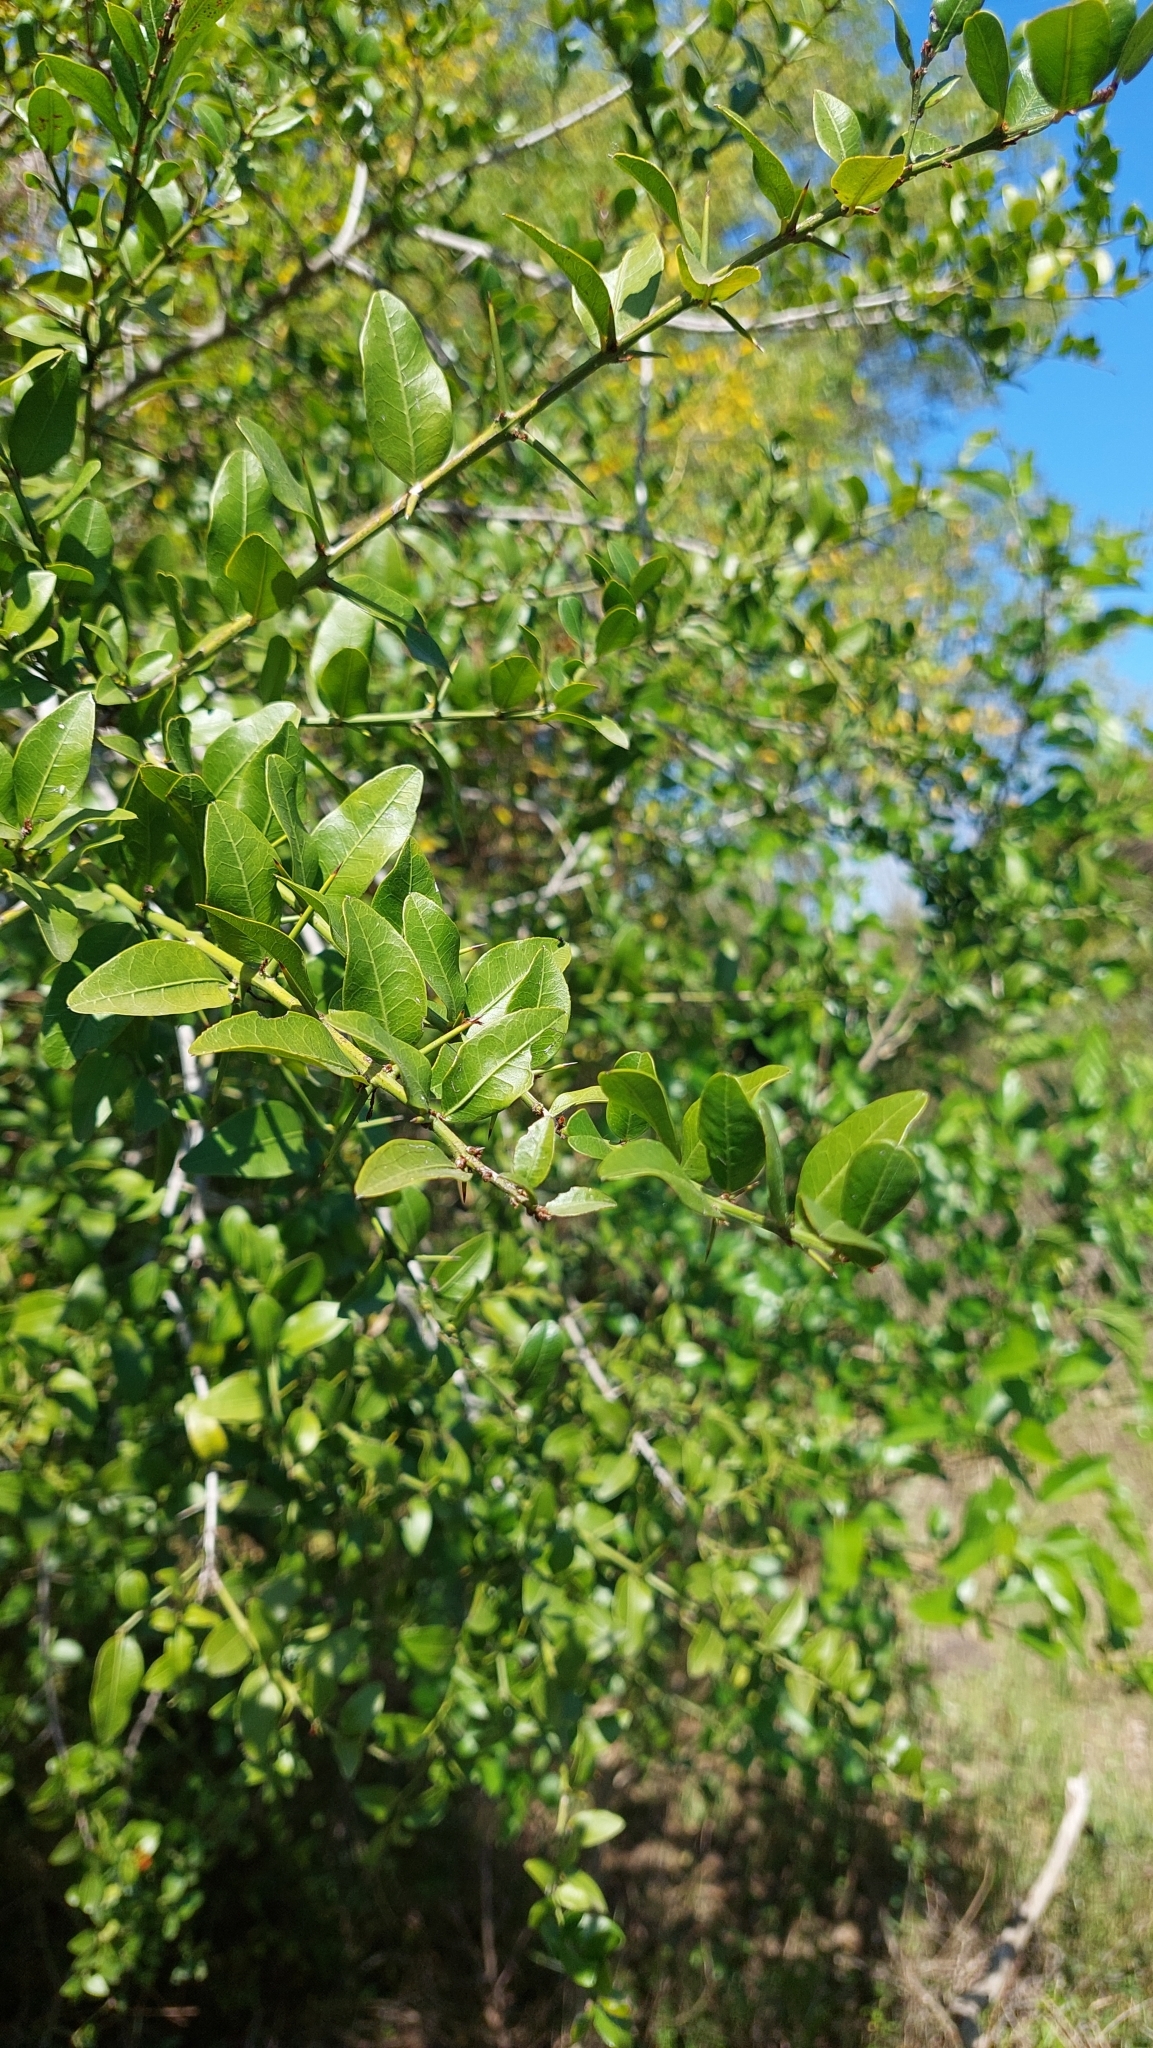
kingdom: Plantae
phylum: Tracheophyta
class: Magnoliopsida
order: Rosales
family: Rhamnaceae
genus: Scutia
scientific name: Scutia buxifolia
